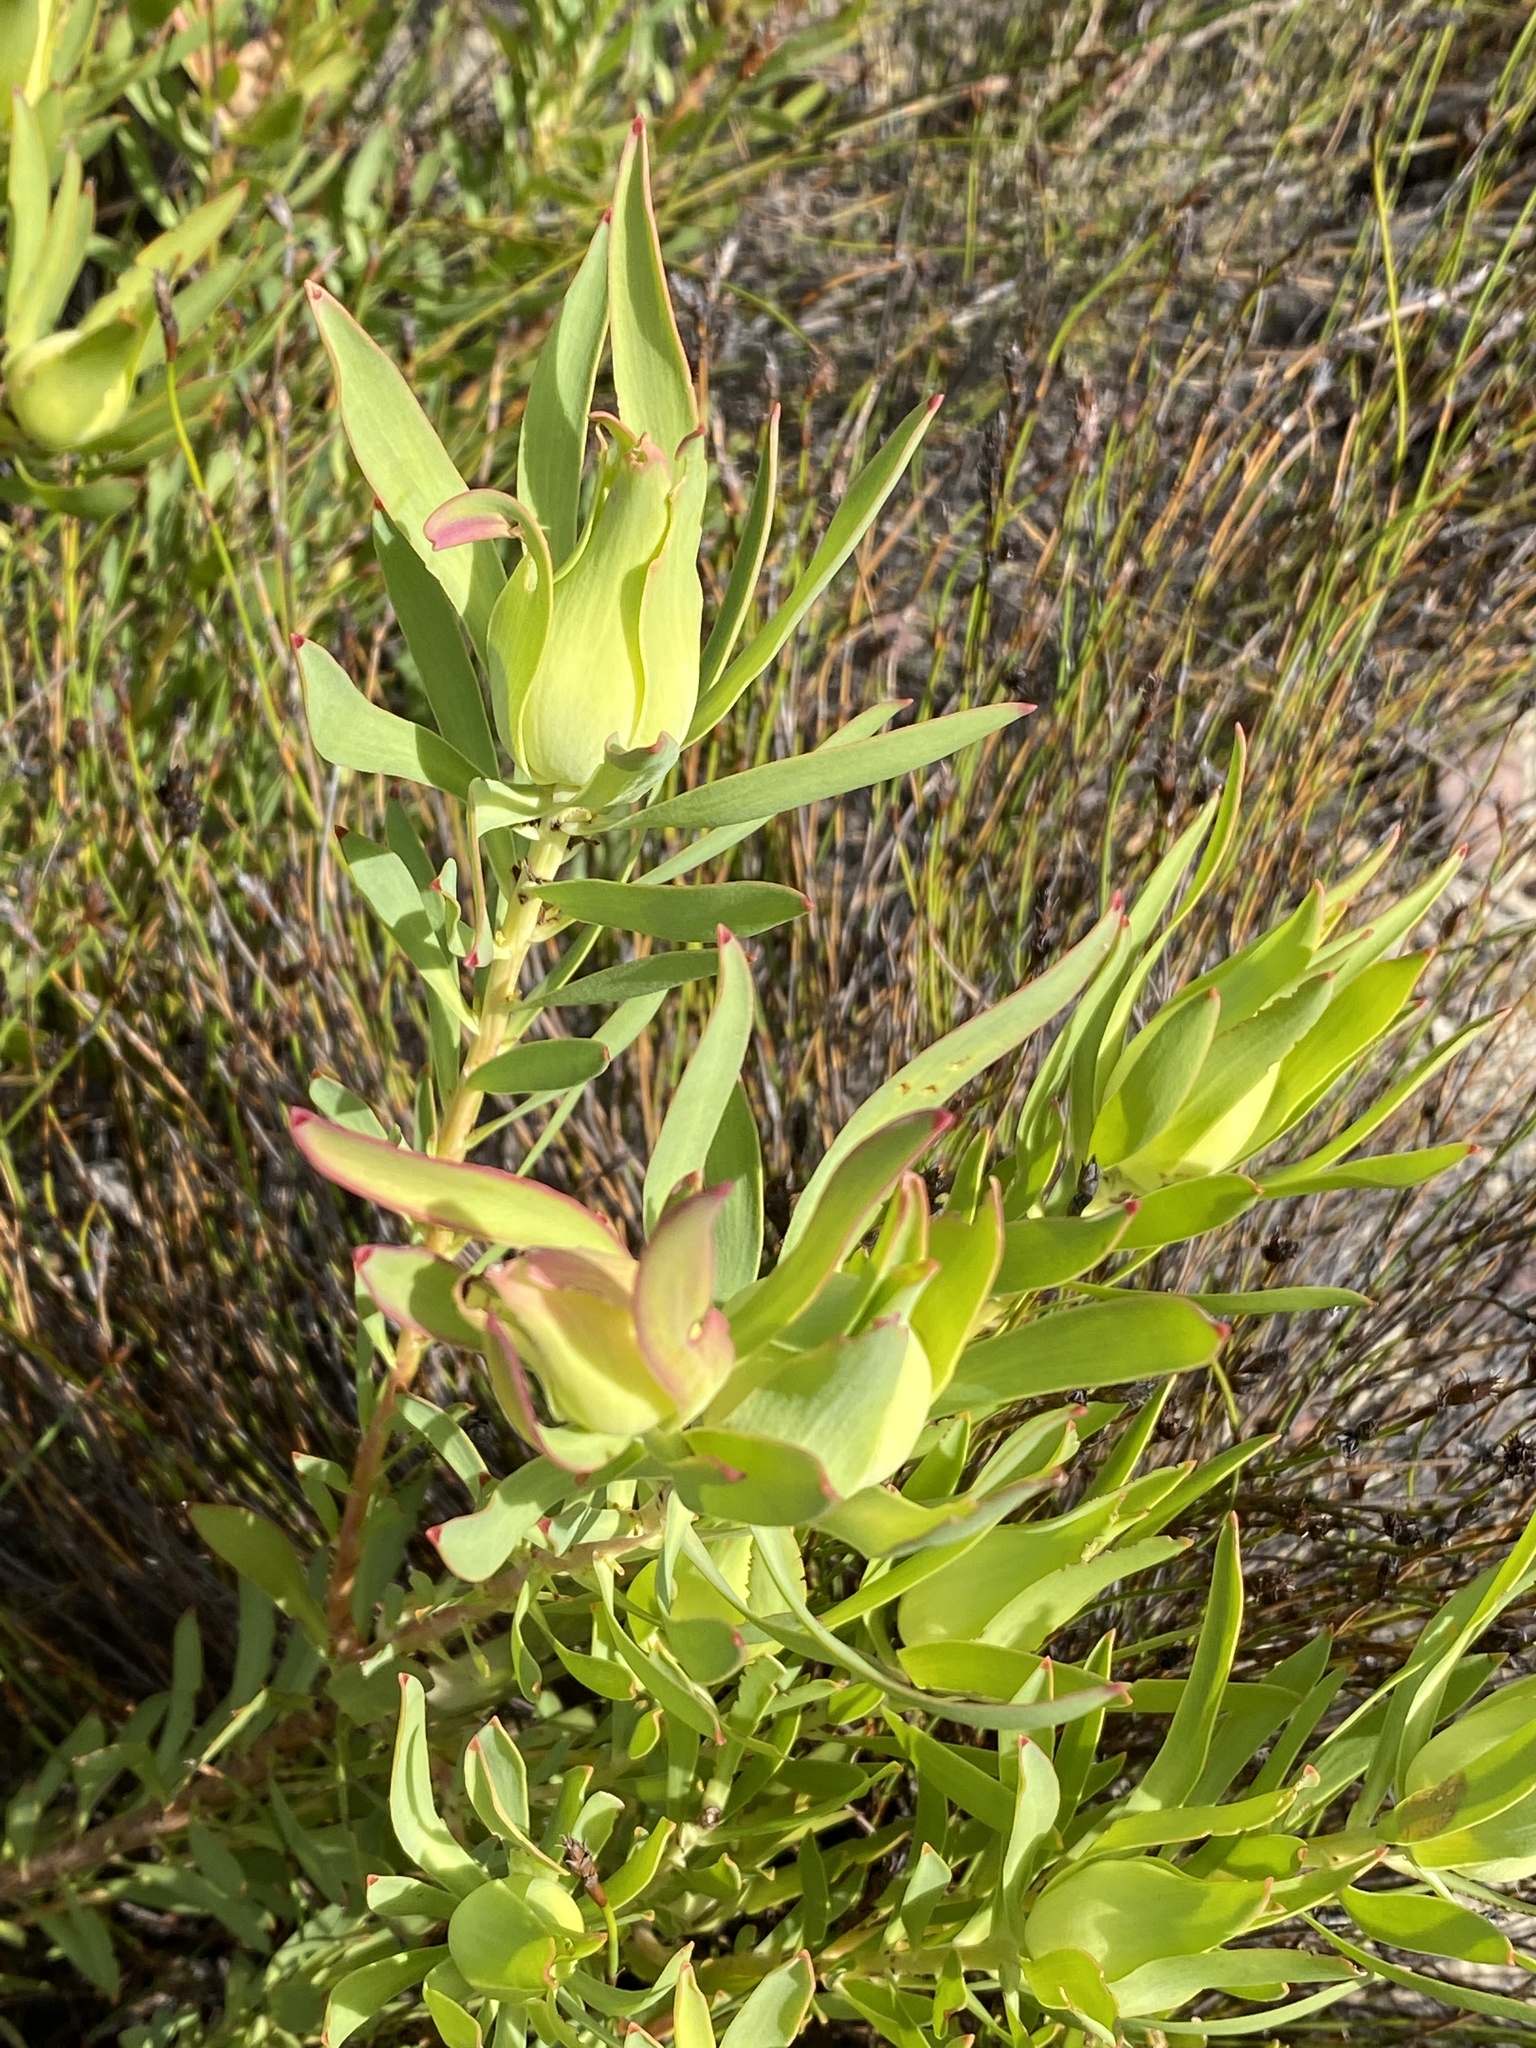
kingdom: Plantae
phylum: Tracheophyta
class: Magnoliopsida
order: Proteales
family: Proteaceae
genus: Leucadendron
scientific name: Leucadendron salignum
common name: Common sunshine conebush
